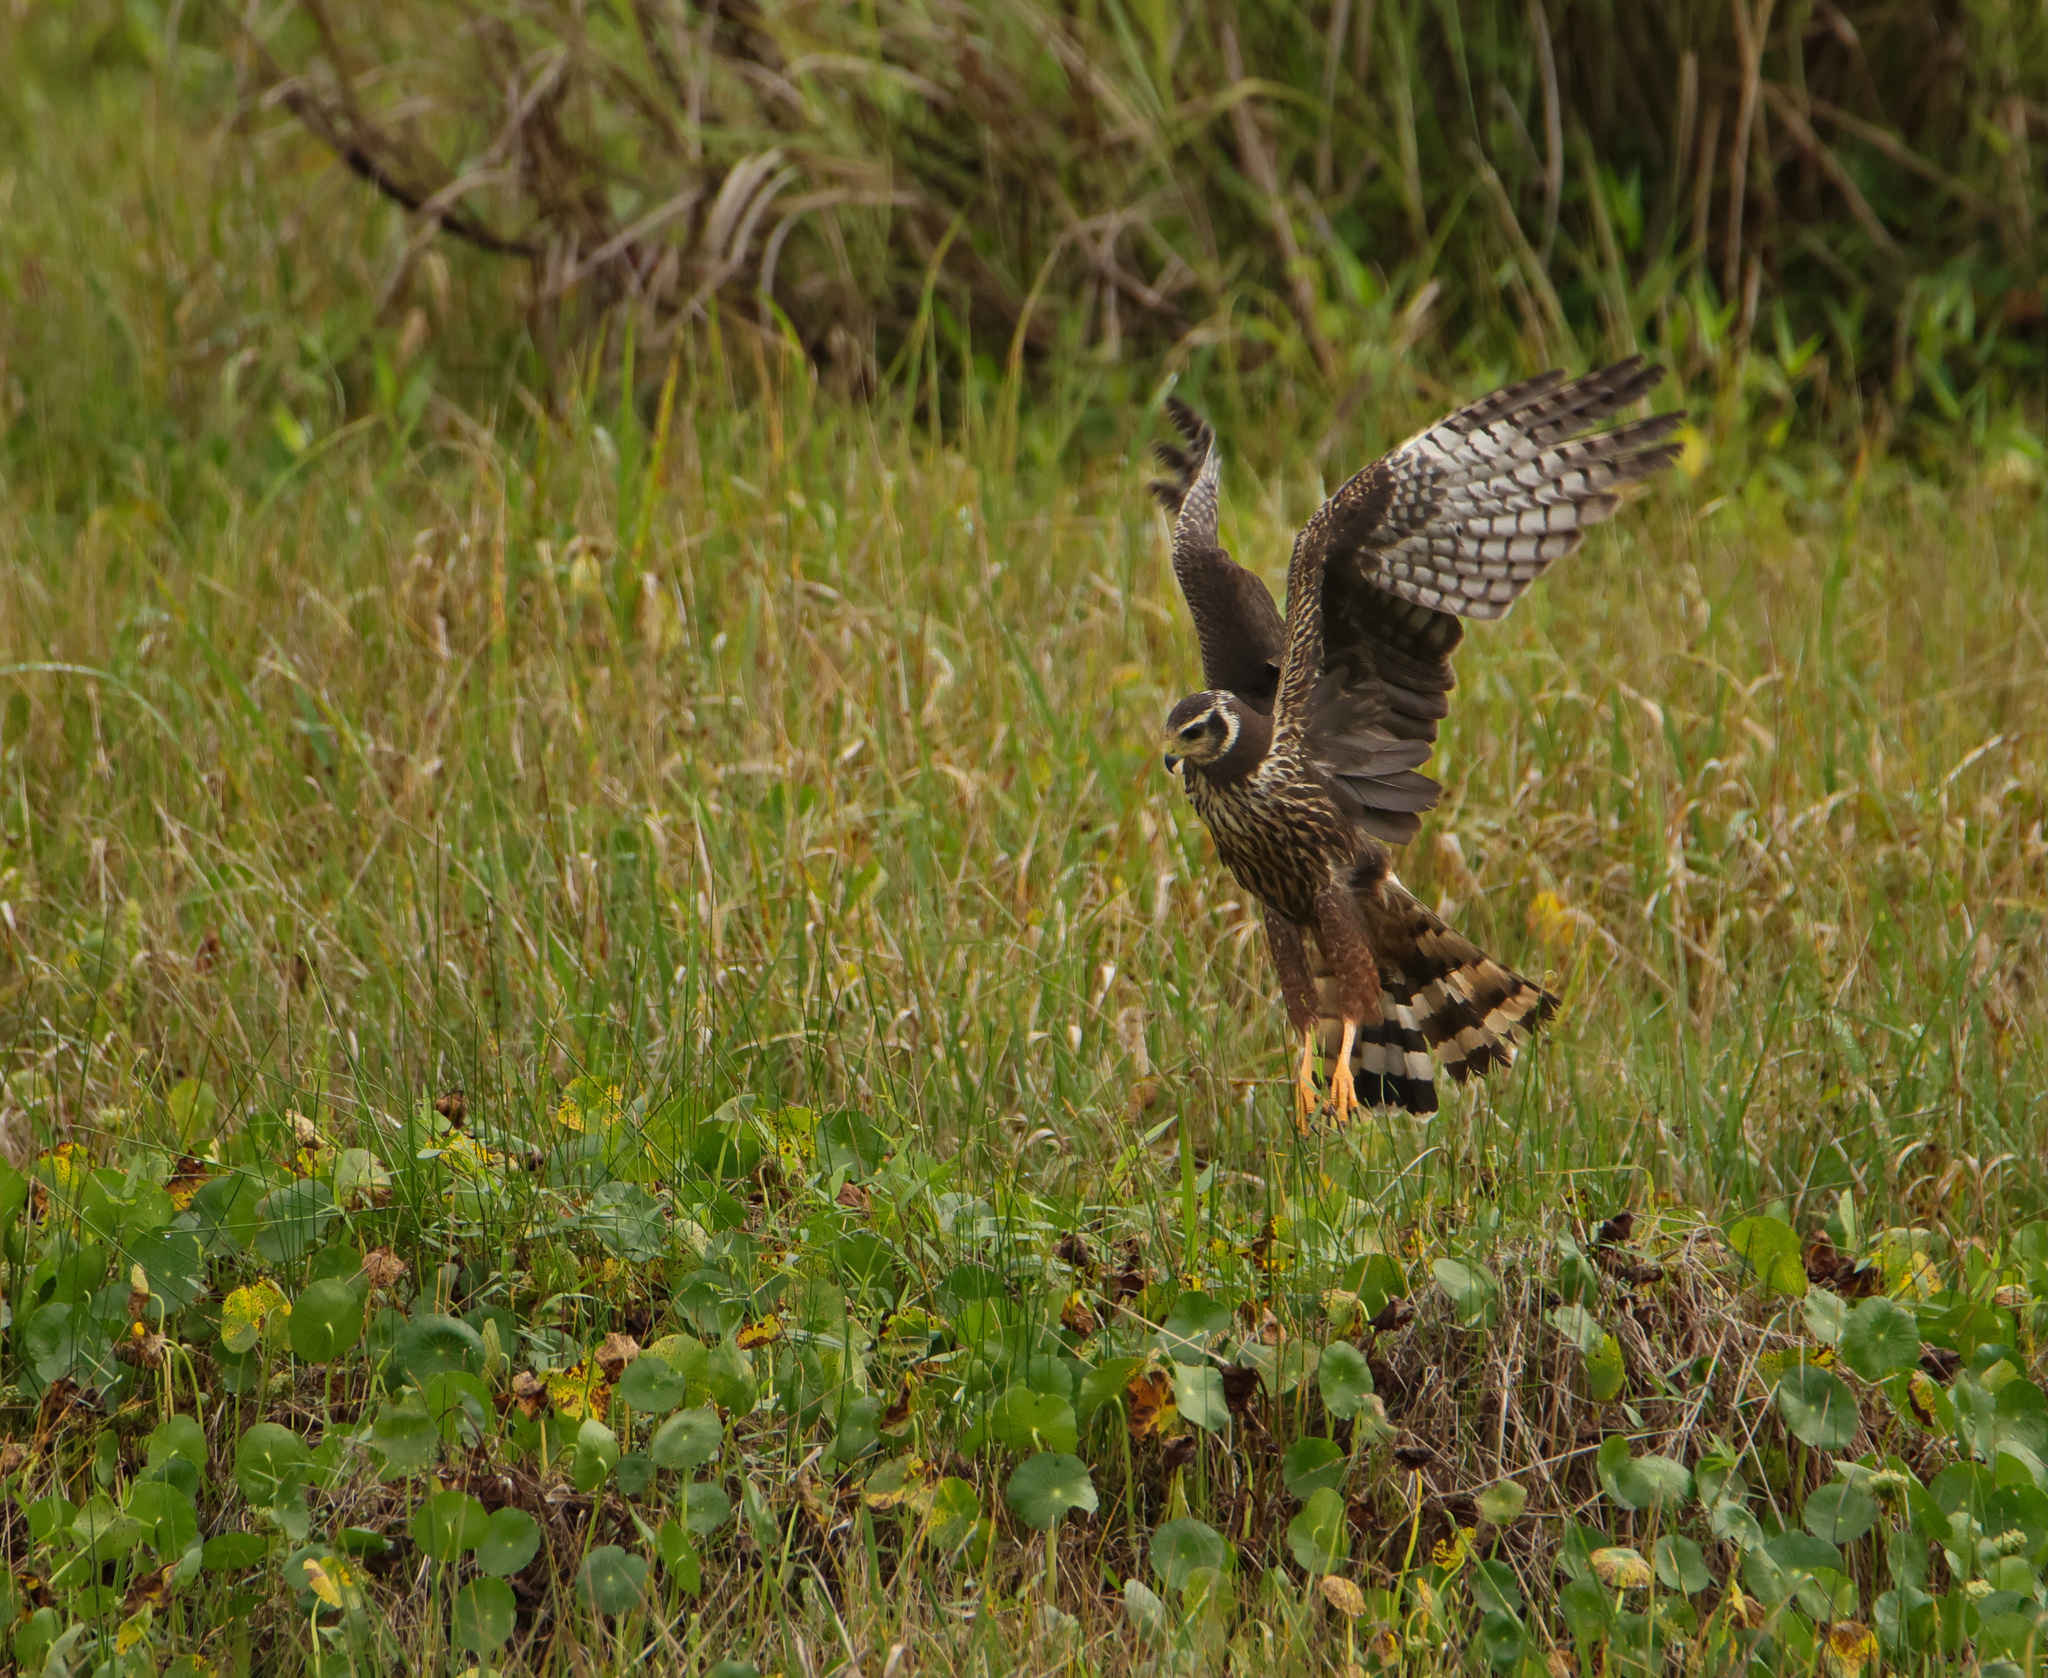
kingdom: Animalia
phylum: Chordata
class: Aves
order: Accipitriformes
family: Accipitridae
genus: Circus
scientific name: Circus buffoni
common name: Long-winged harrier
